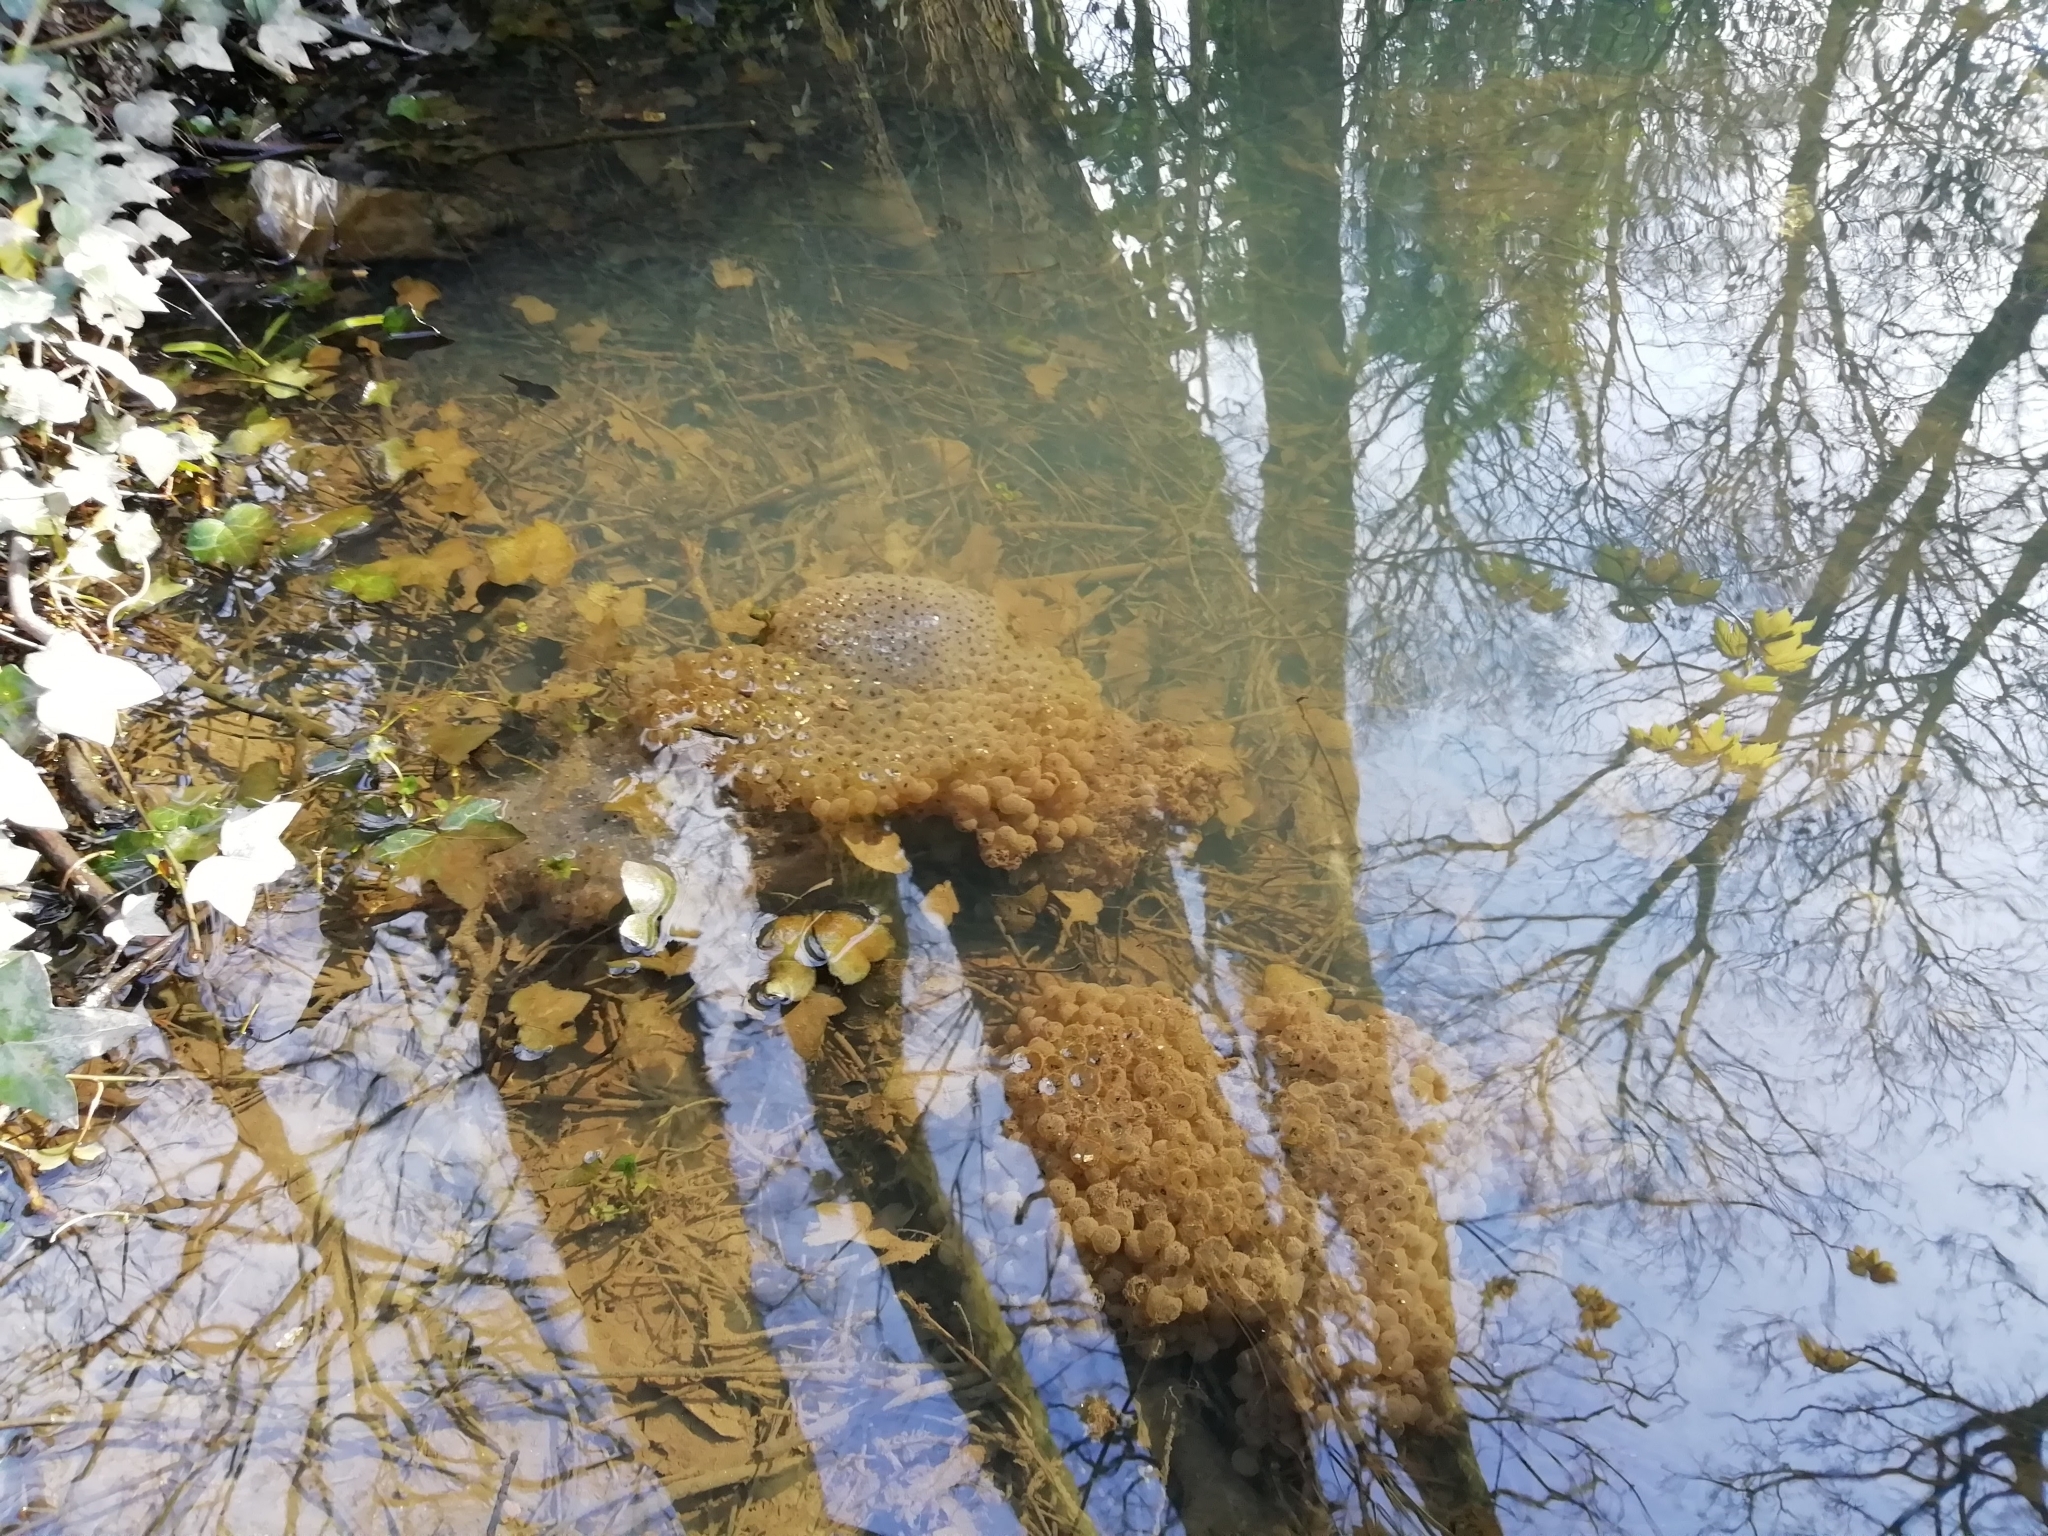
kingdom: Animalia
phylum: Chordata
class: Amphibia
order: Anura
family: Ranidae
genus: Rana
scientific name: Rana temporaria
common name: Common frog
